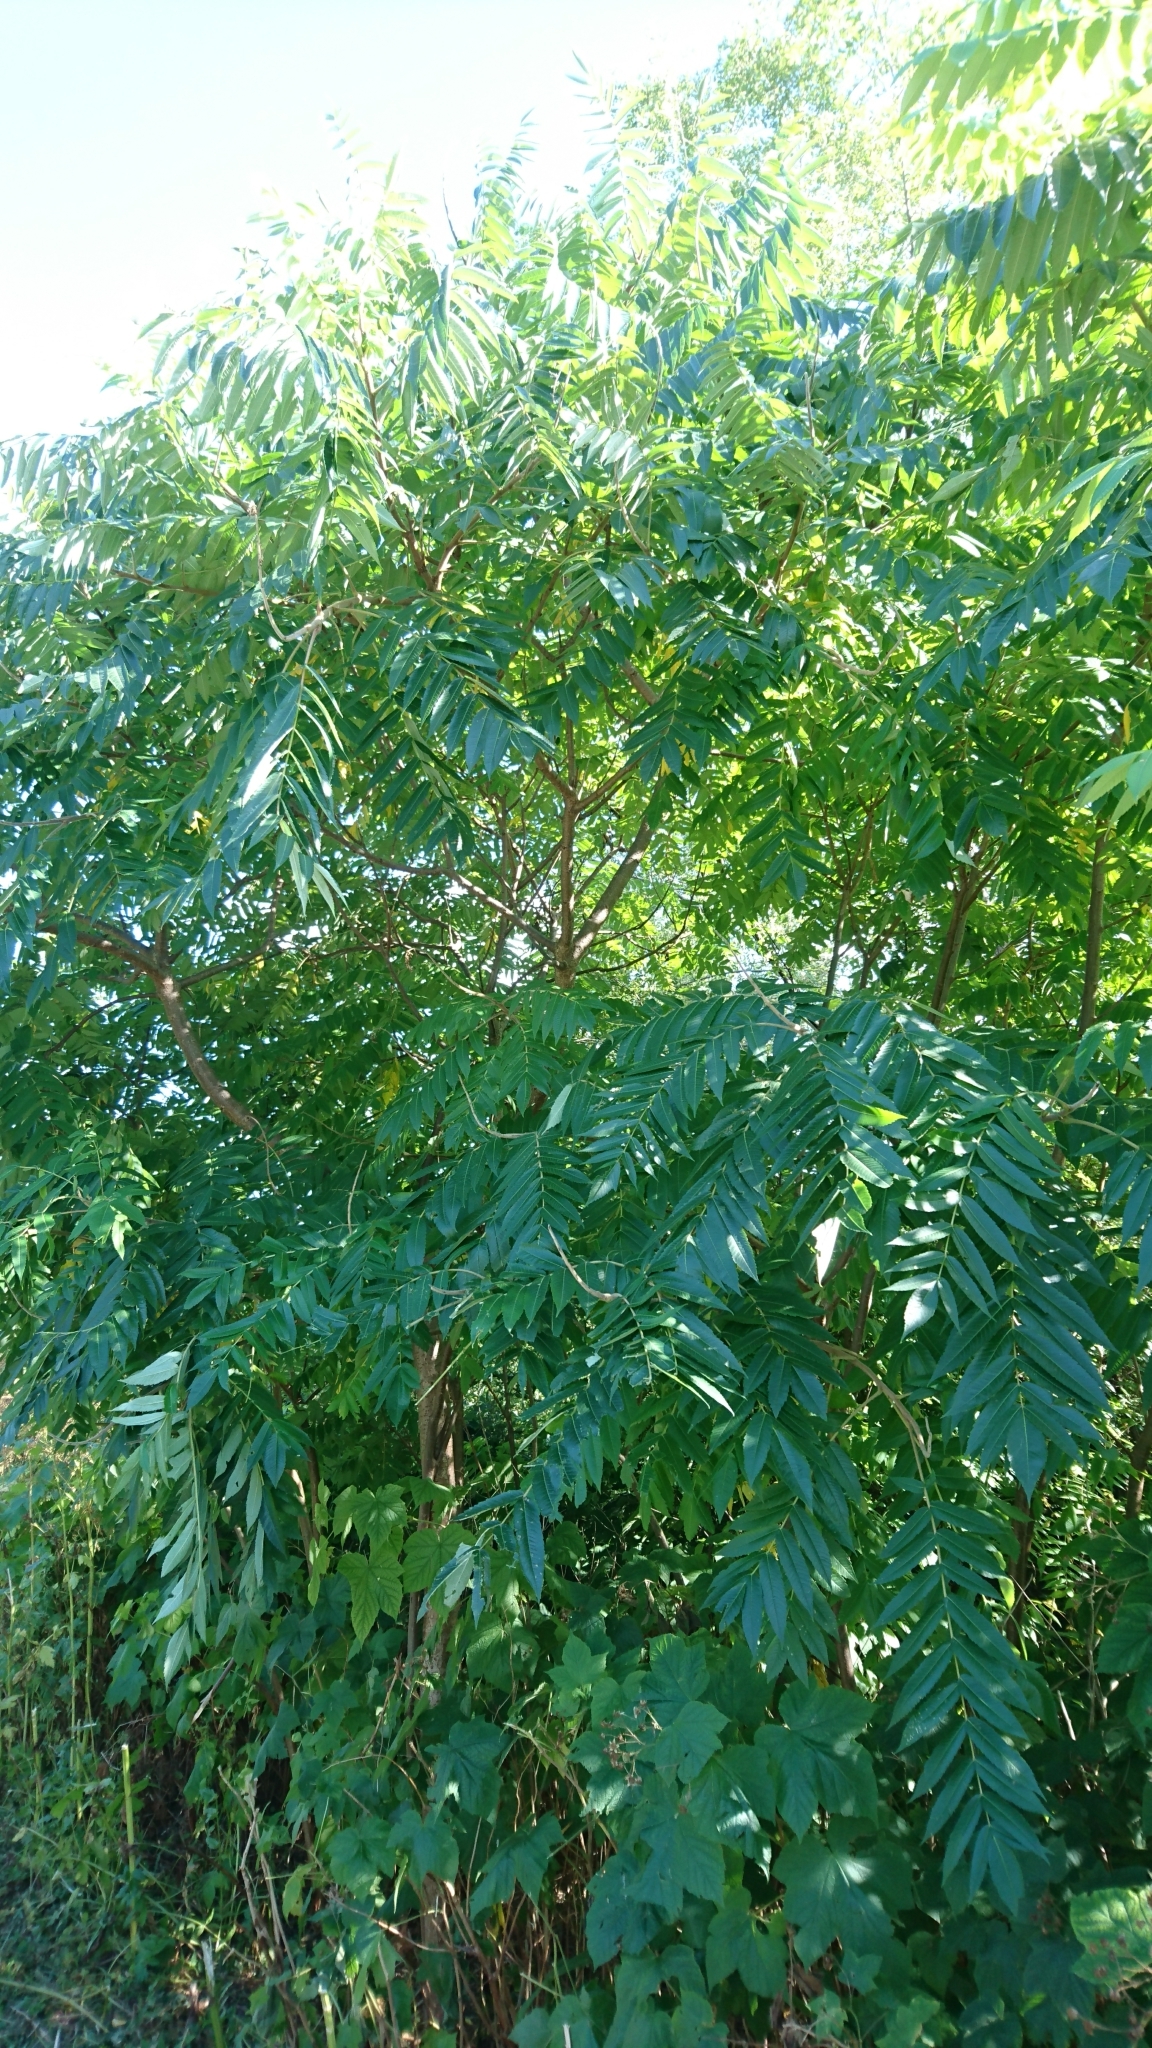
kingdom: Plantae
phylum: Tracheophyta
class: Magnoliopsida
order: Sapindales
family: Anacardiaceae
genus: Rhus
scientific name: Rhus typhina
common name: Staghorn sumac
